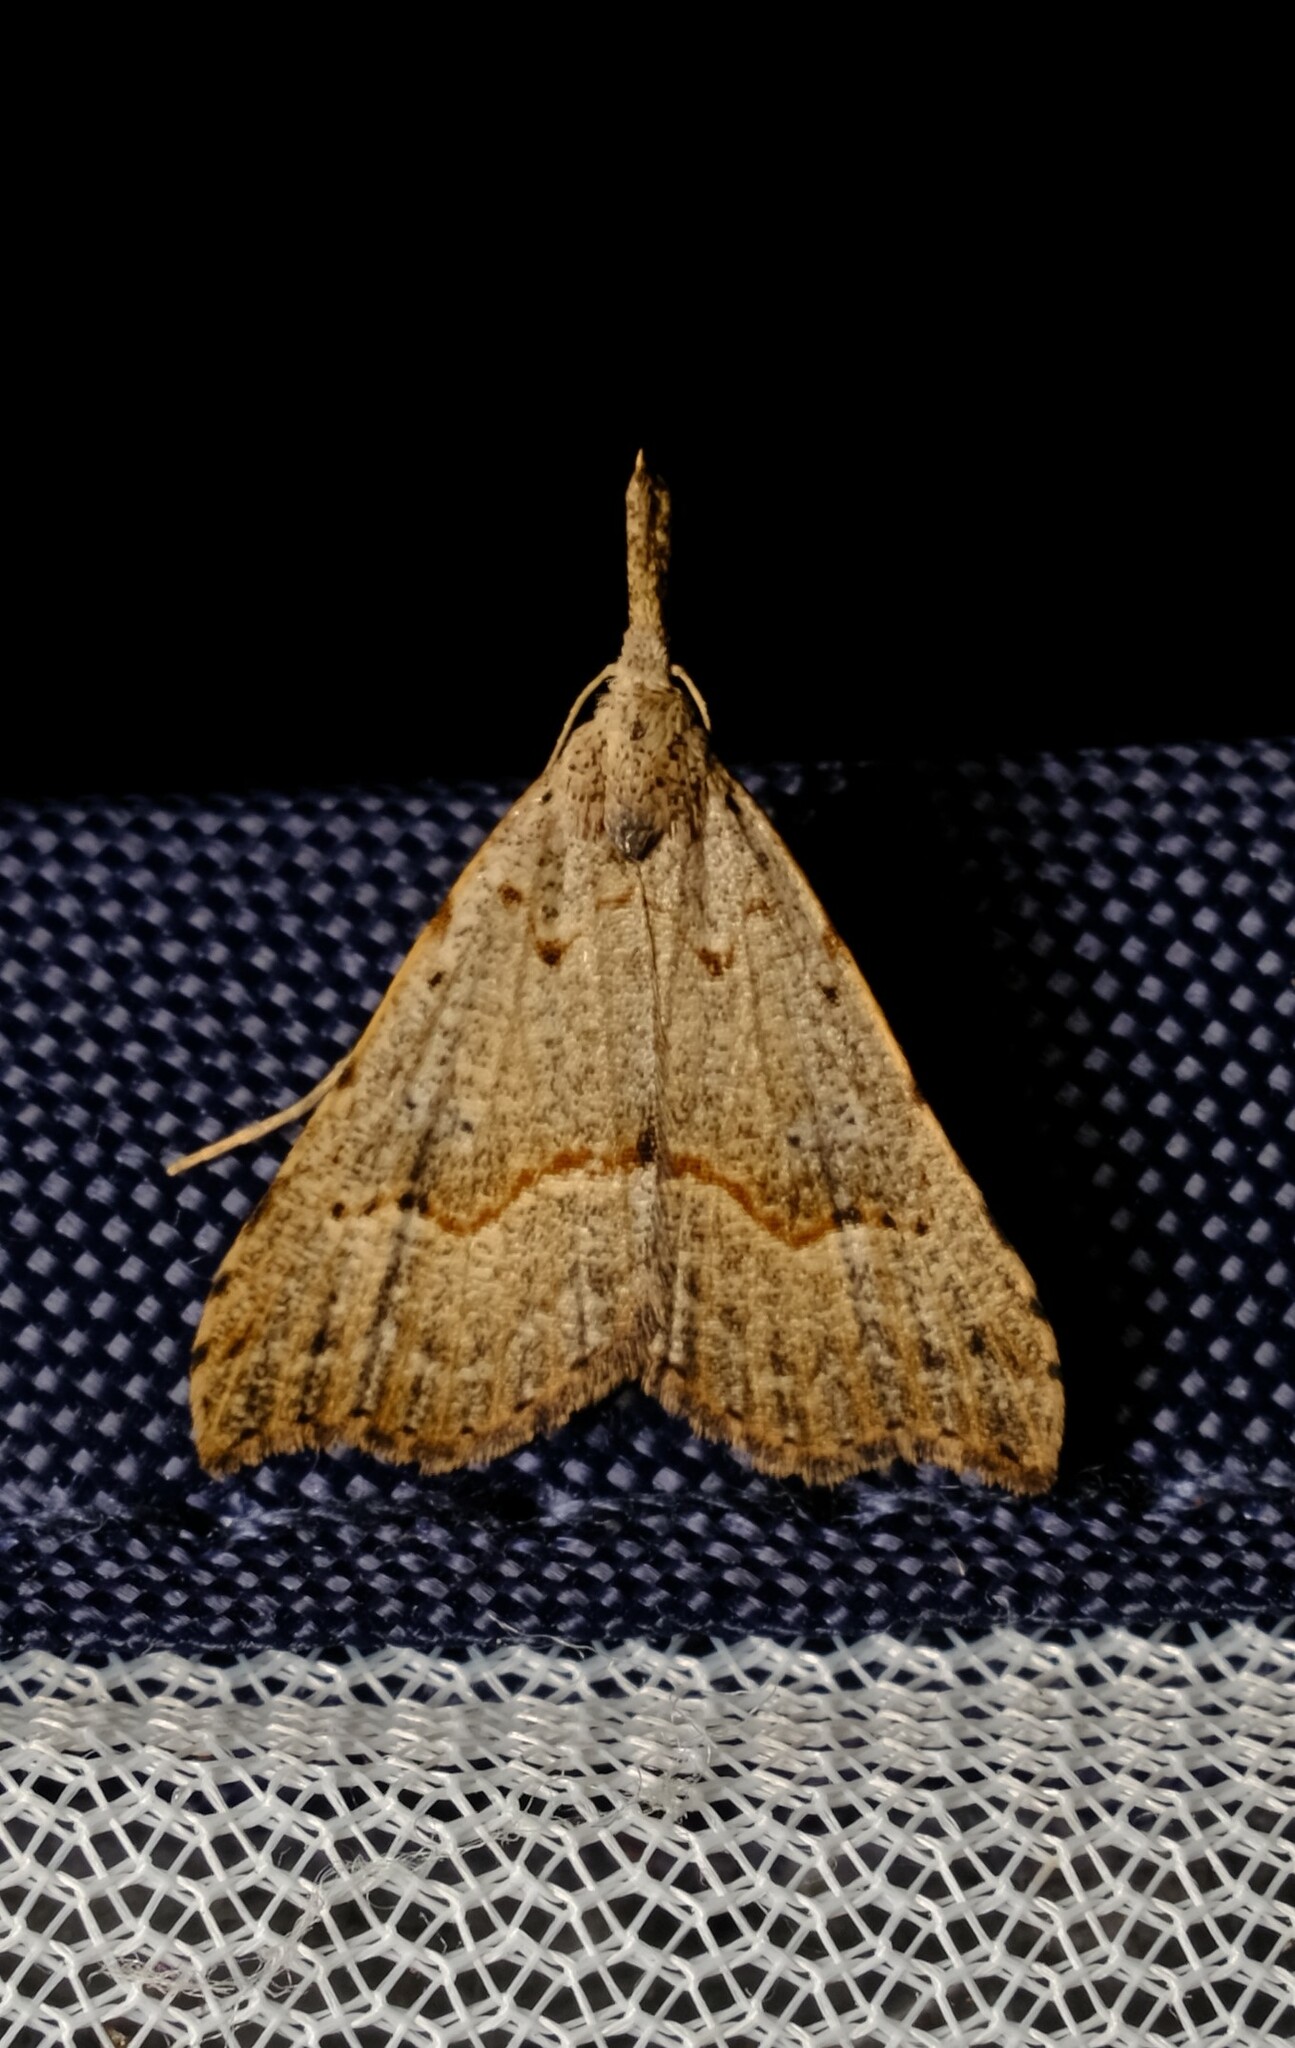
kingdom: Animalia
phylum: Arthropoda
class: Insecta
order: Lepidoptera
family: Erebidae
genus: Trigonistis
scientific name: Trigonistis asthenopa
